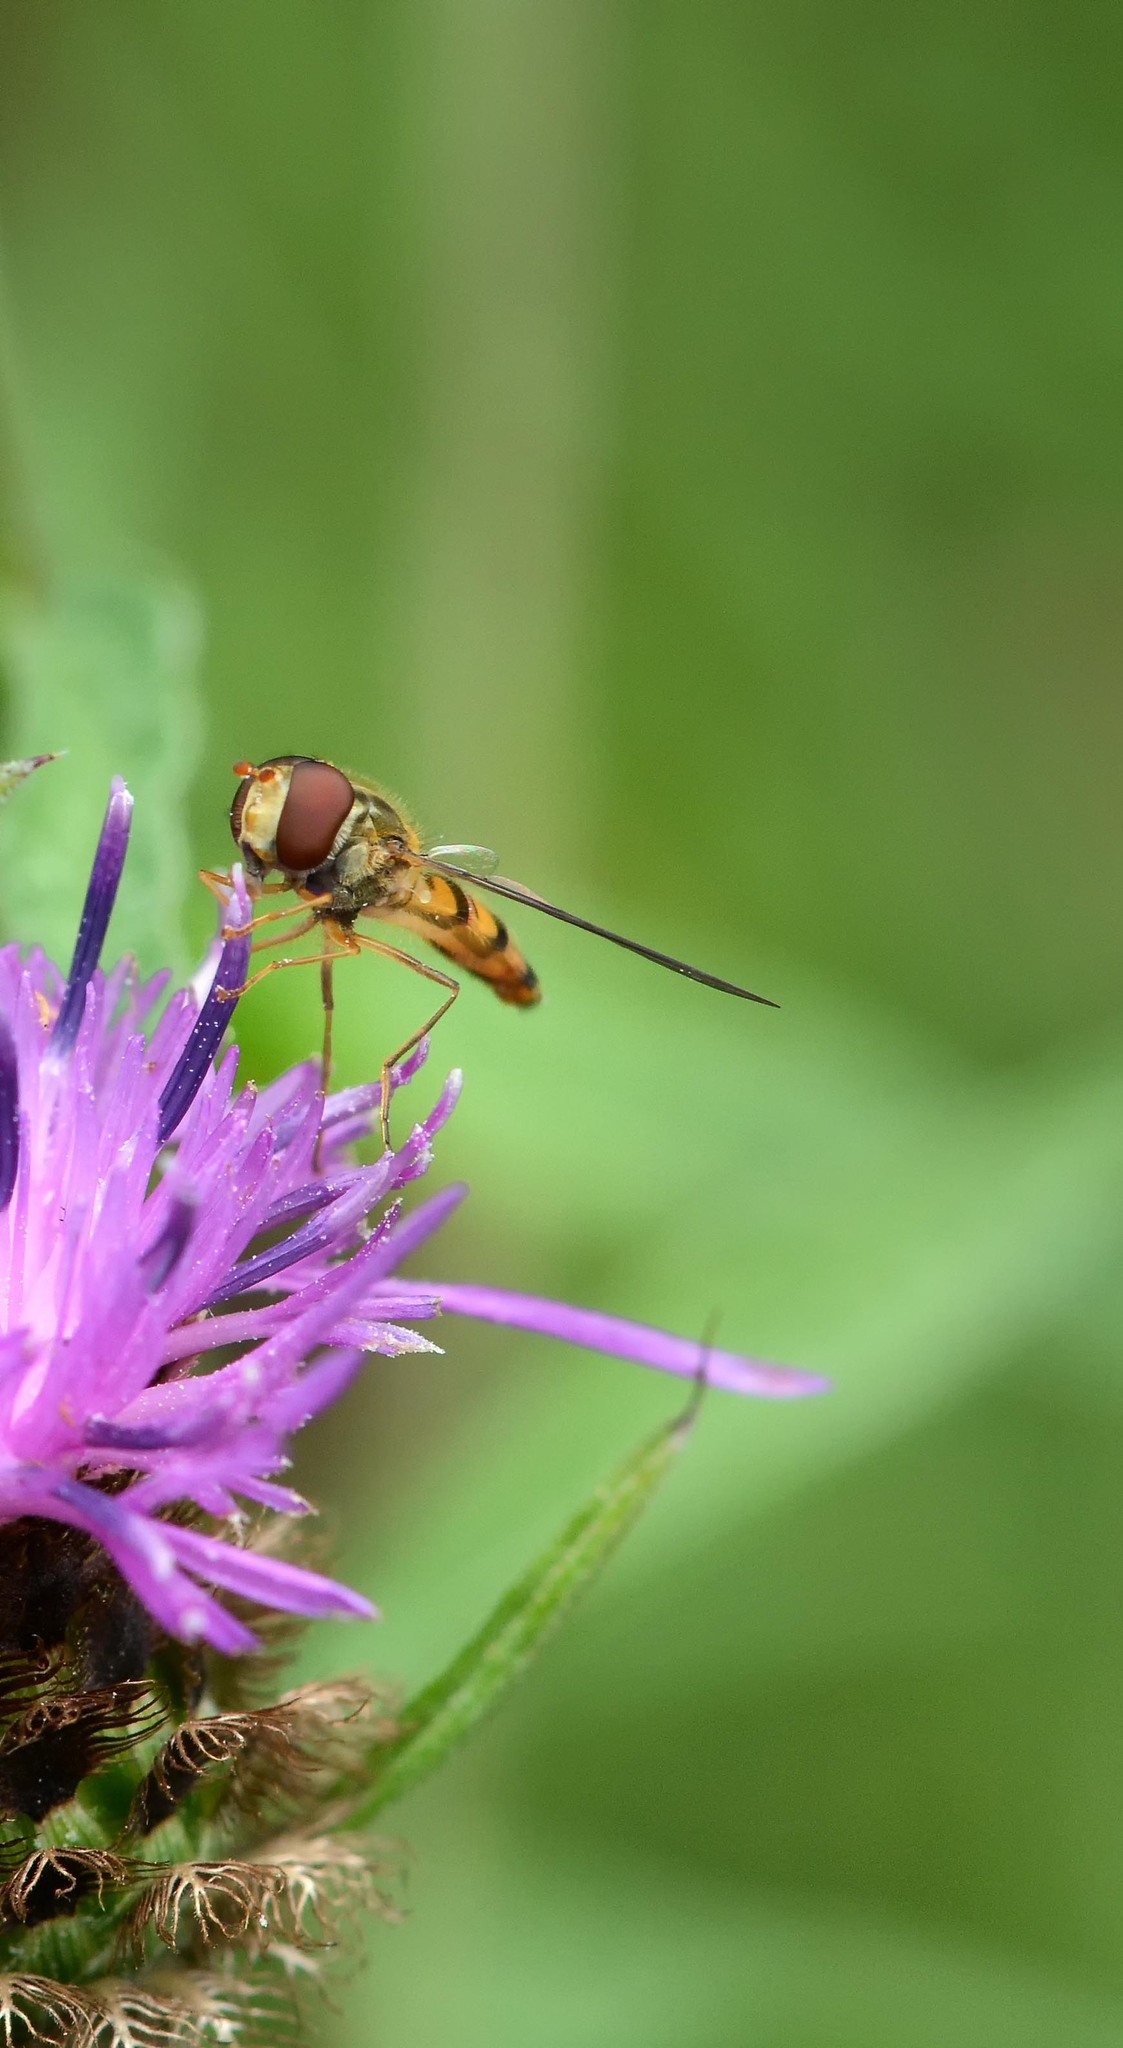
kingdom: Animalia
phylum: Arthropoda
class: Insecta
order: Diptera
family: Syrphidae
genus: Episyrphus
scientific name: Episyrphus balteatus
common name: Marmalade hoverfly
